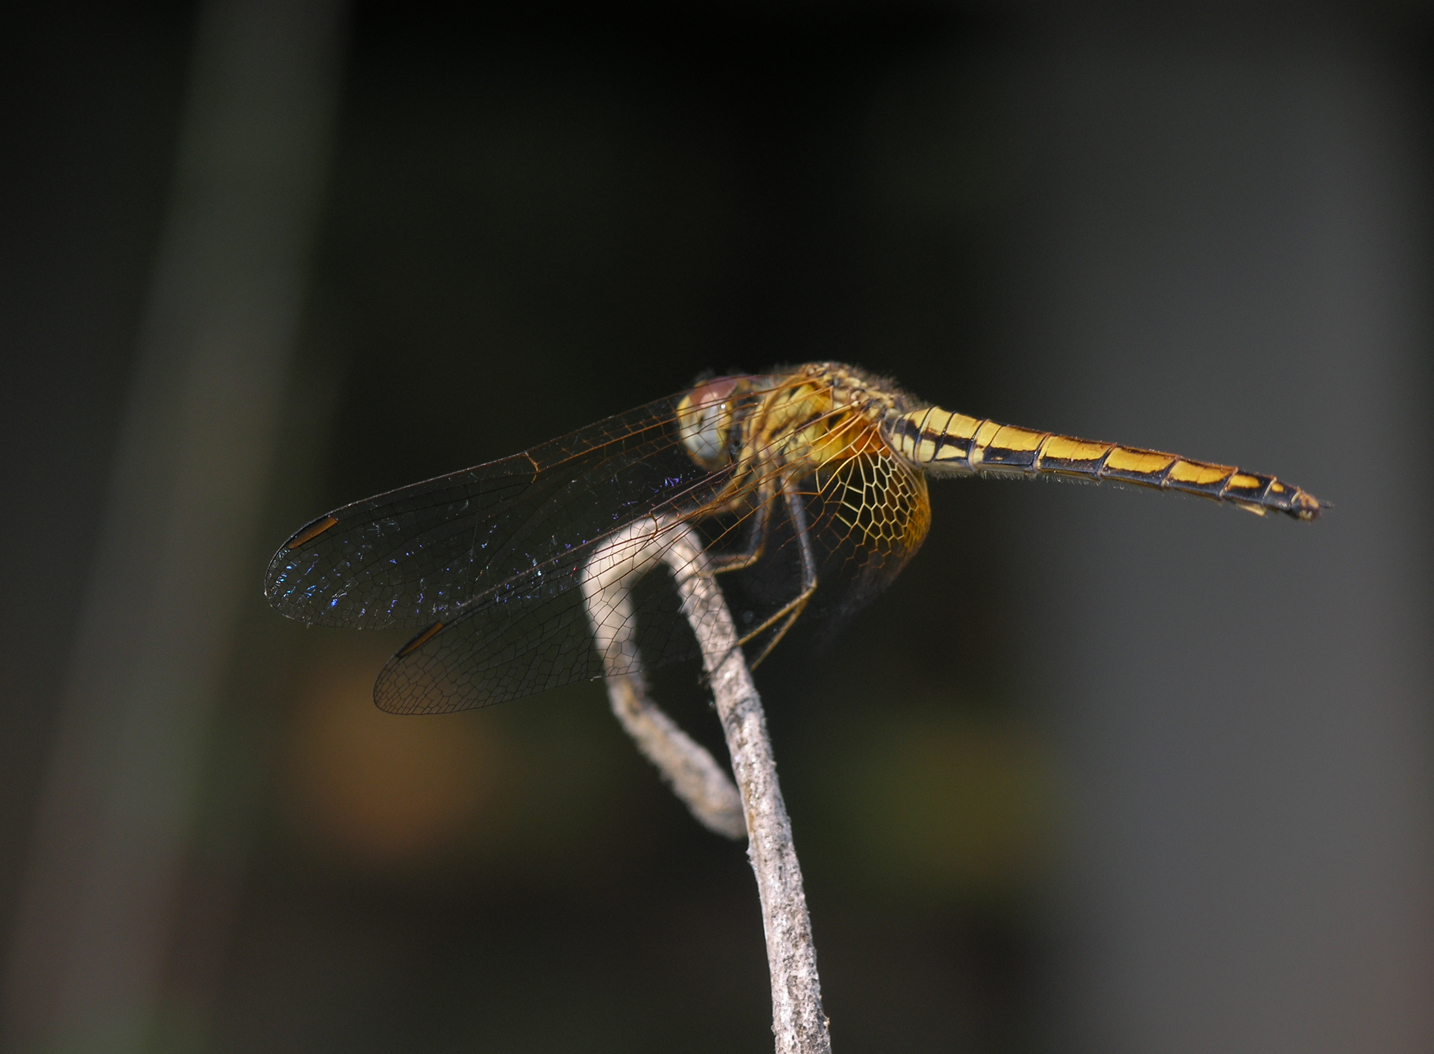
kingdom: Animalia
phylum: Arthropoda
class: Insecta
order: Odonata
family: Libellulidae
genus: Trithemis
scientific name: Trithemis aurora
